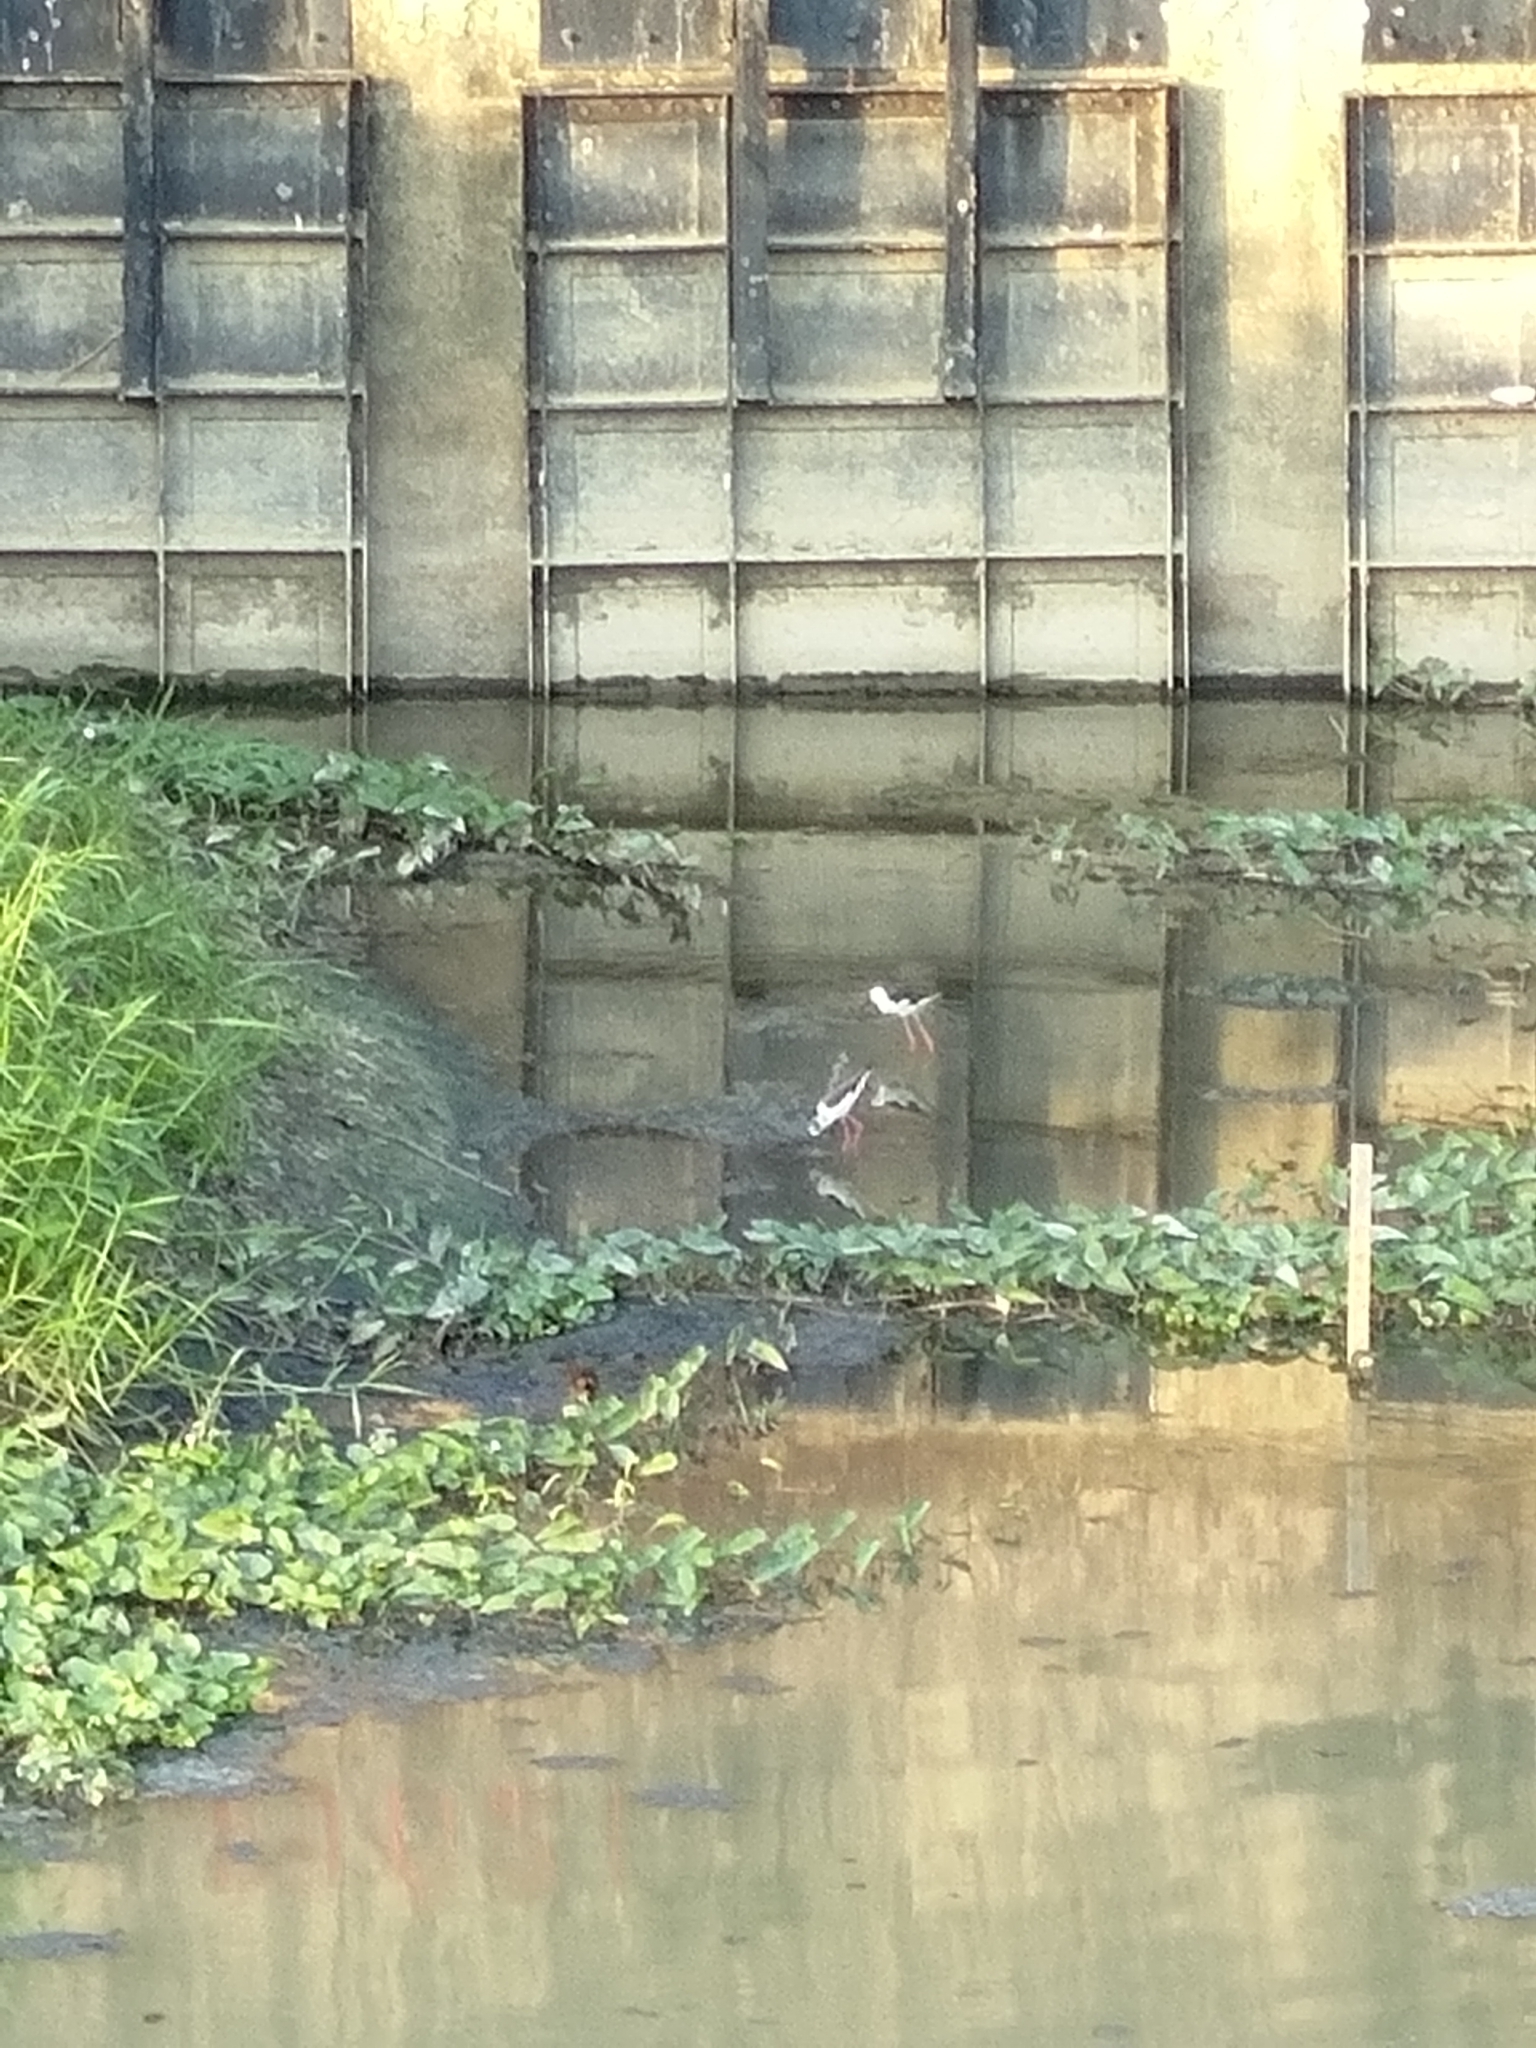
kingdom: Animalia
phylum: Chordata
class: Aves
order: Charadriiformes
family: Recurvirostridae
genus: Himantopus
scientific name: Himantopus himantopus
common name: Black-winged stilt
